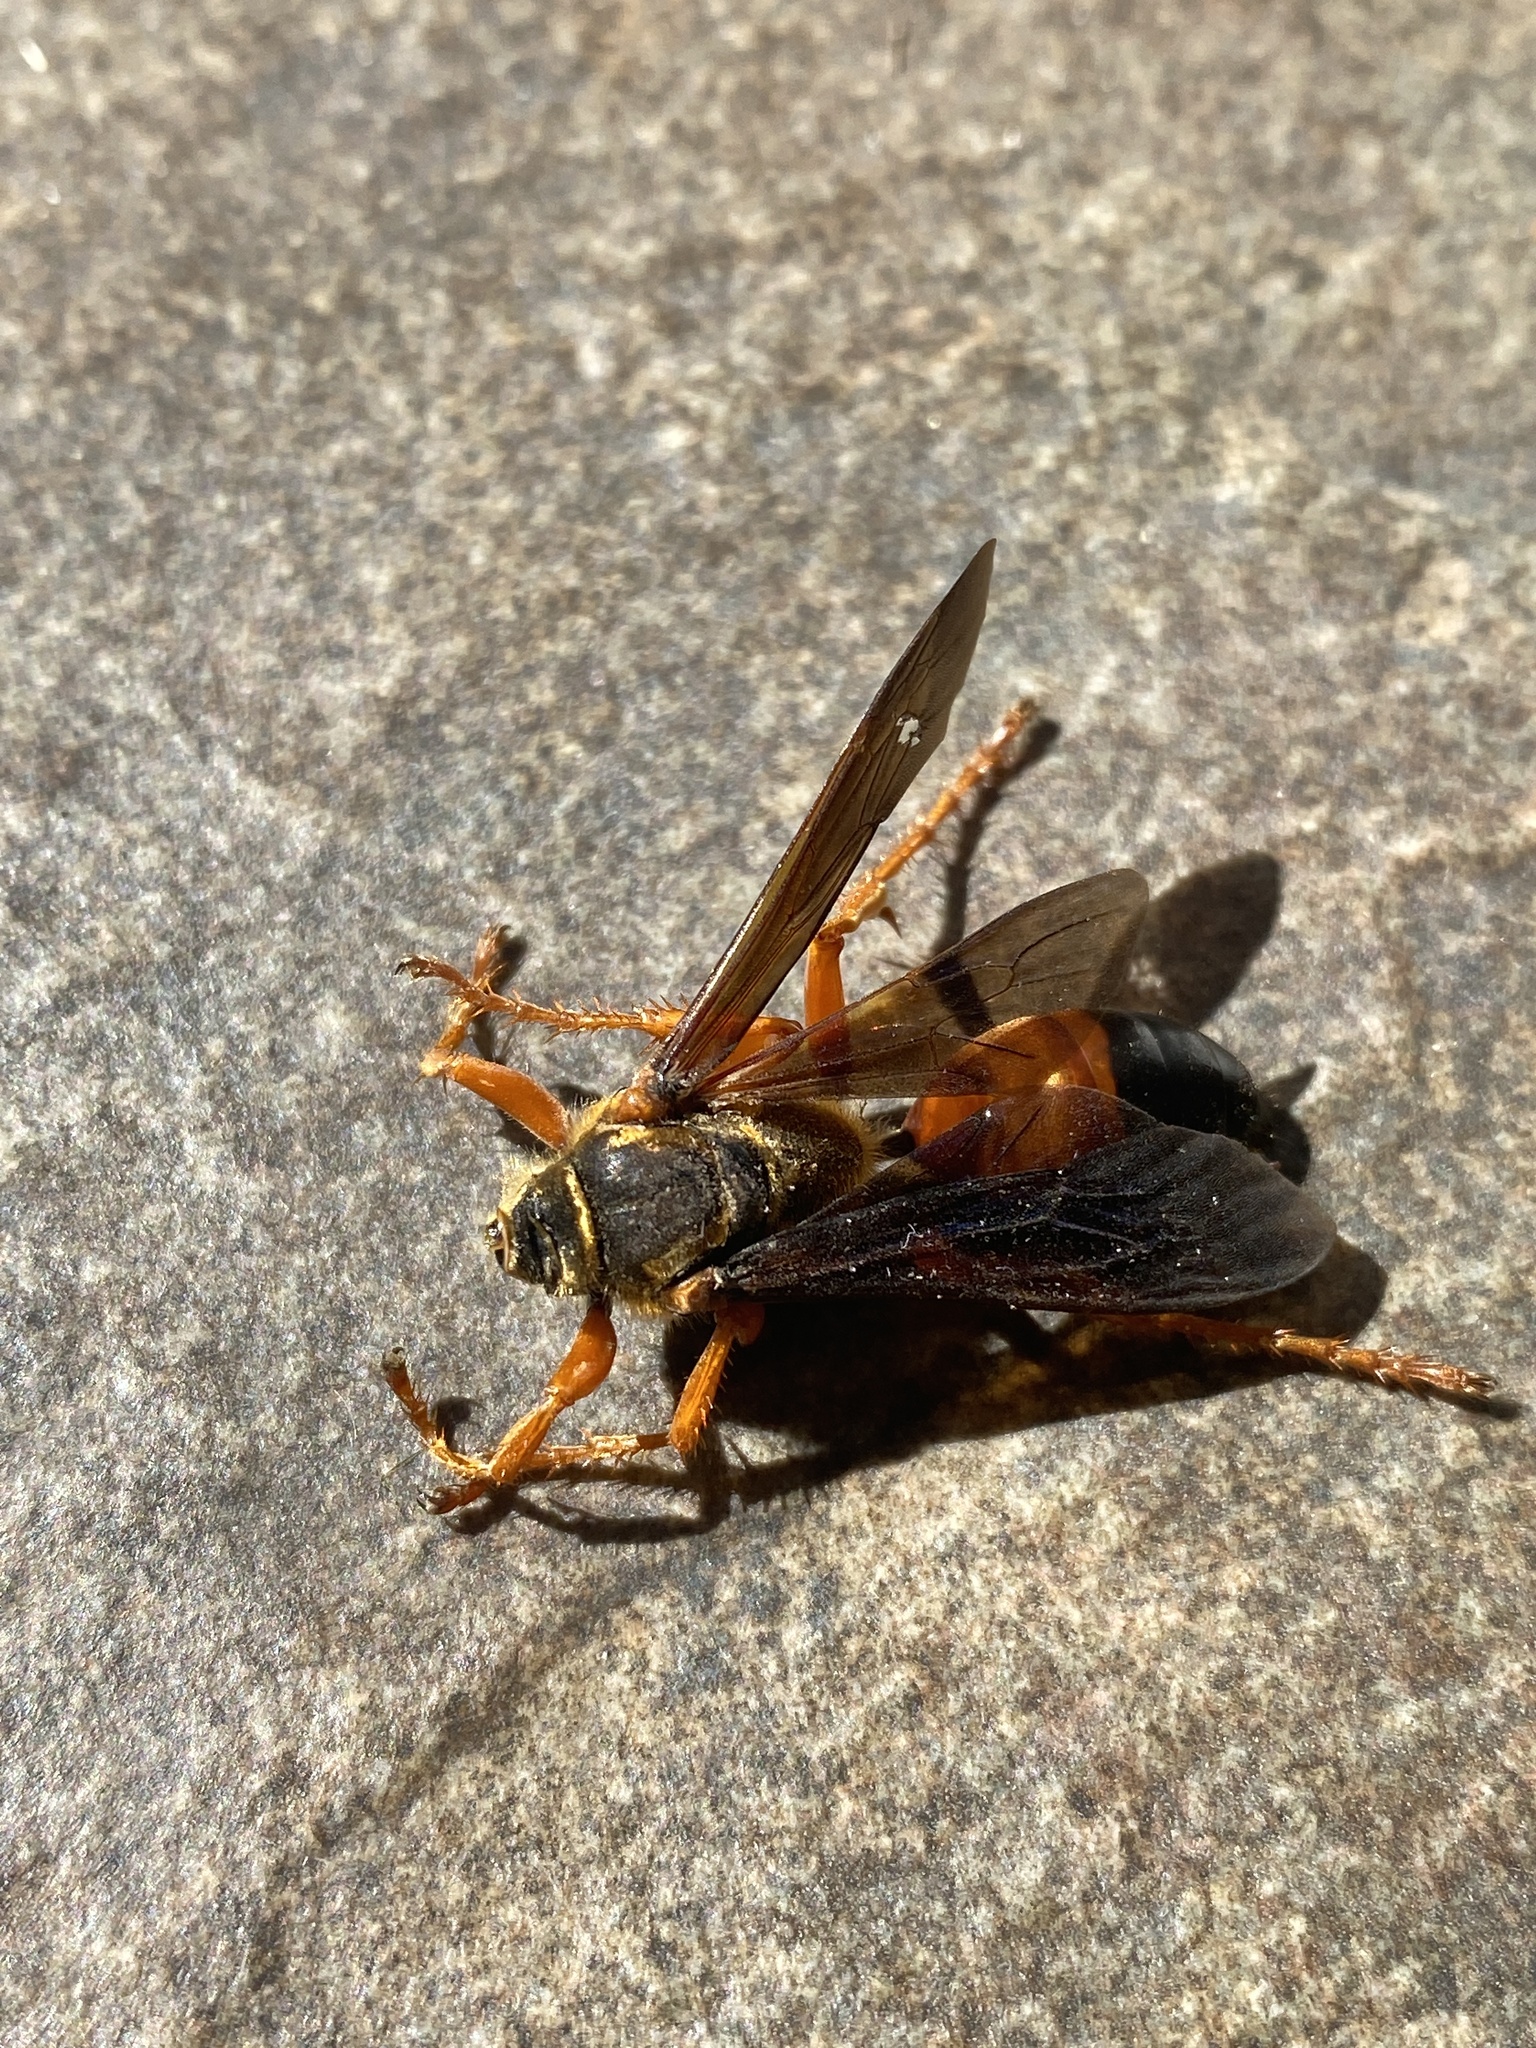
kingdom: Animalia
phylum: Arthropoda
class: Insecta
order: Hymenoptera
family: Sphecidae
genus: Sphex
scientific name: Sphex ichneumoneus
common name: Great golden digger wasp
